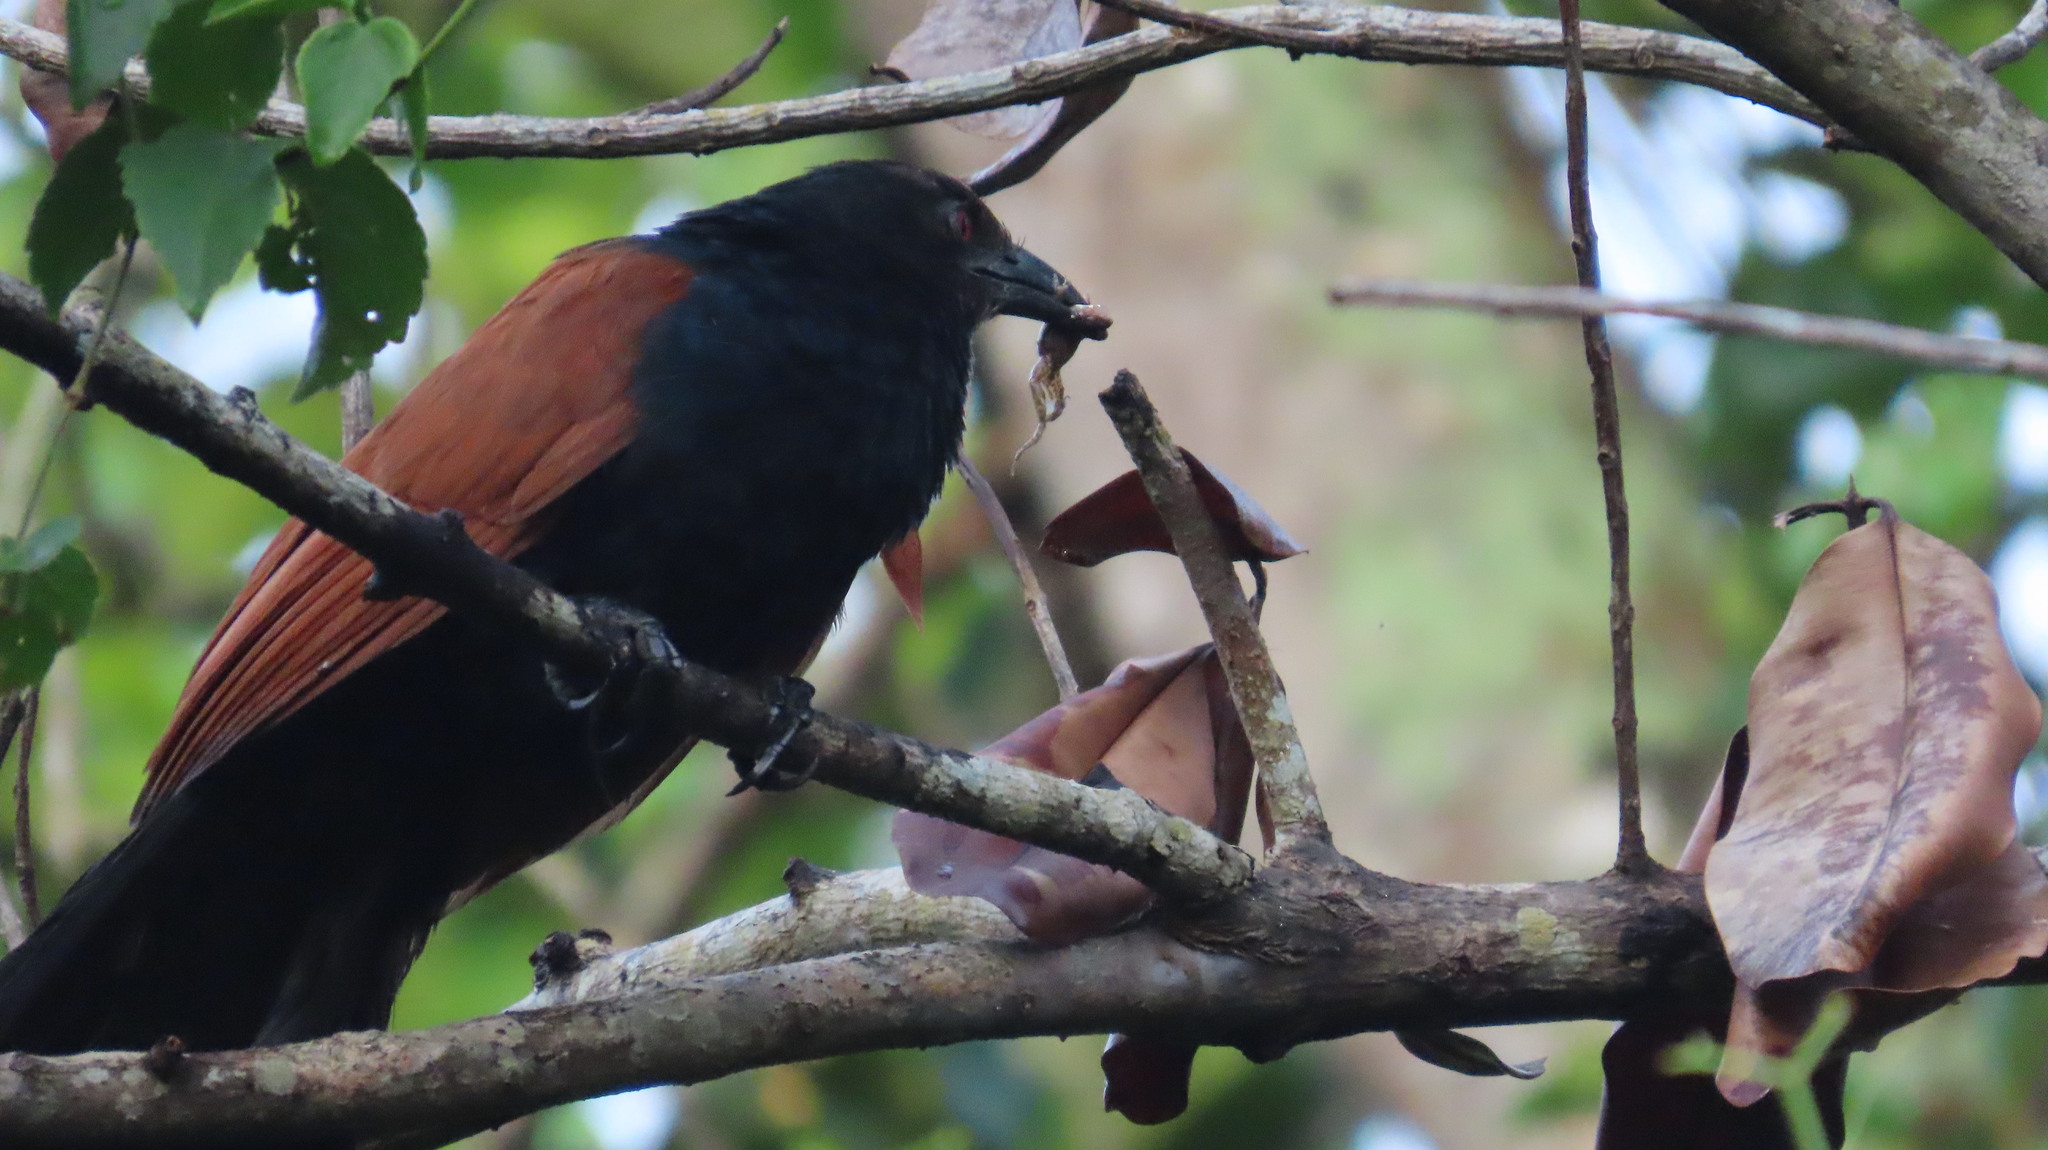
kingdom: Animalia
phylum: Chordata
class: Aves
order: Cuculiformes
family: Cuculidae
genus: Centropus
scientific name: Centropus sinensis
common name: Greater coucal
